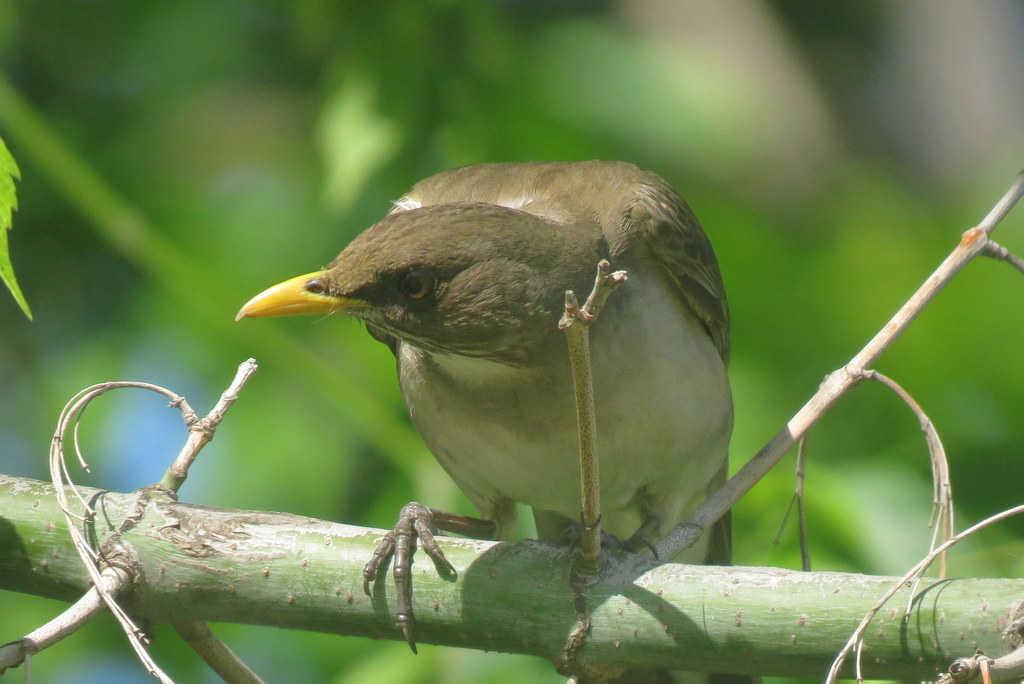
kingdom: Animalia
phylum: Chordata
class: Aves
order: Passeriformes
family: Turdidae
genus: Turdus
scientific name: Turdus amaurochalinus
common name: Creamy-bellied thrush
